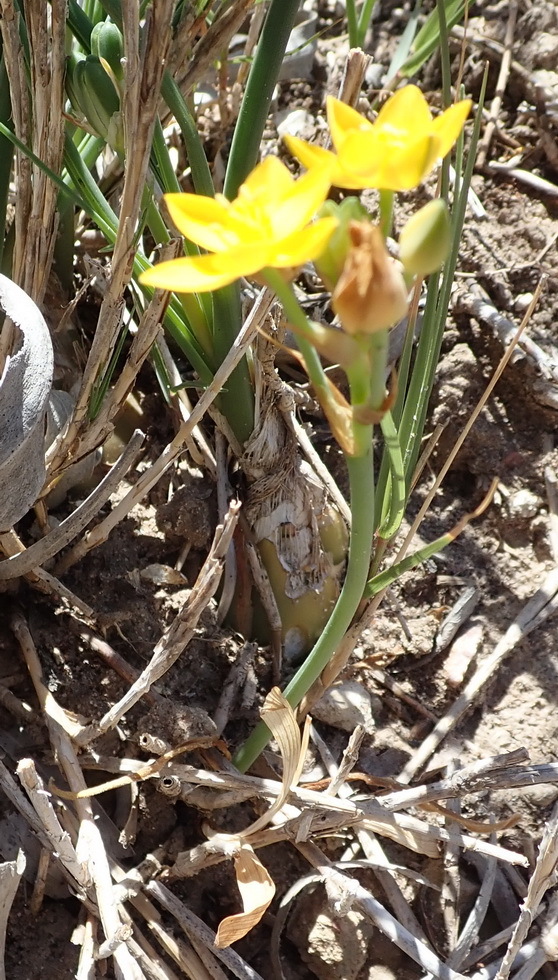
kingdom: Plantae
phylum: Tracheophyta
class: Liliopsida
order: Asparagales
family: Asparagaceae
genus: Ornithogalum
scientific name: Ornithogalum dubium
